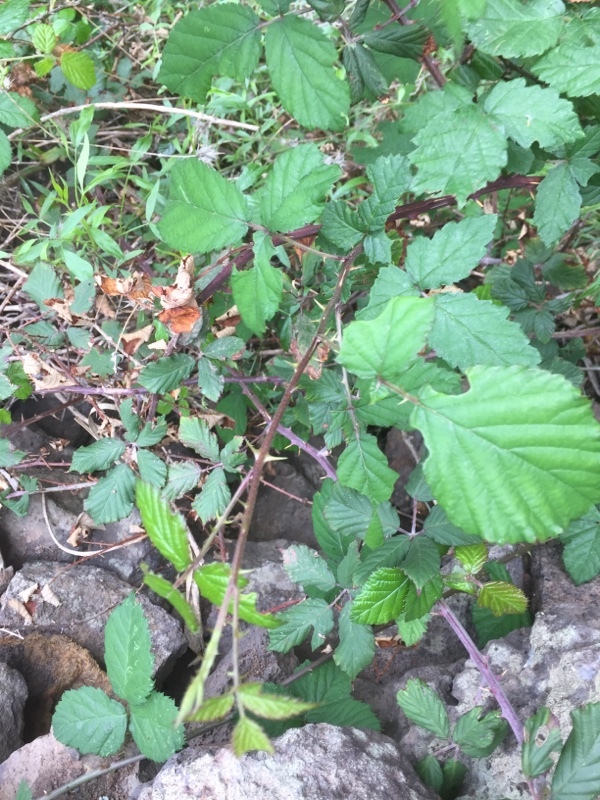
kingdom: Plantae
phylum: Tracheophyta
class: Magnoliopsida
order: Rosales
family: Rosaceae
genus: Rubus
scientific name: Rubus ulmifolius
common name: Elmleaf blackberry
